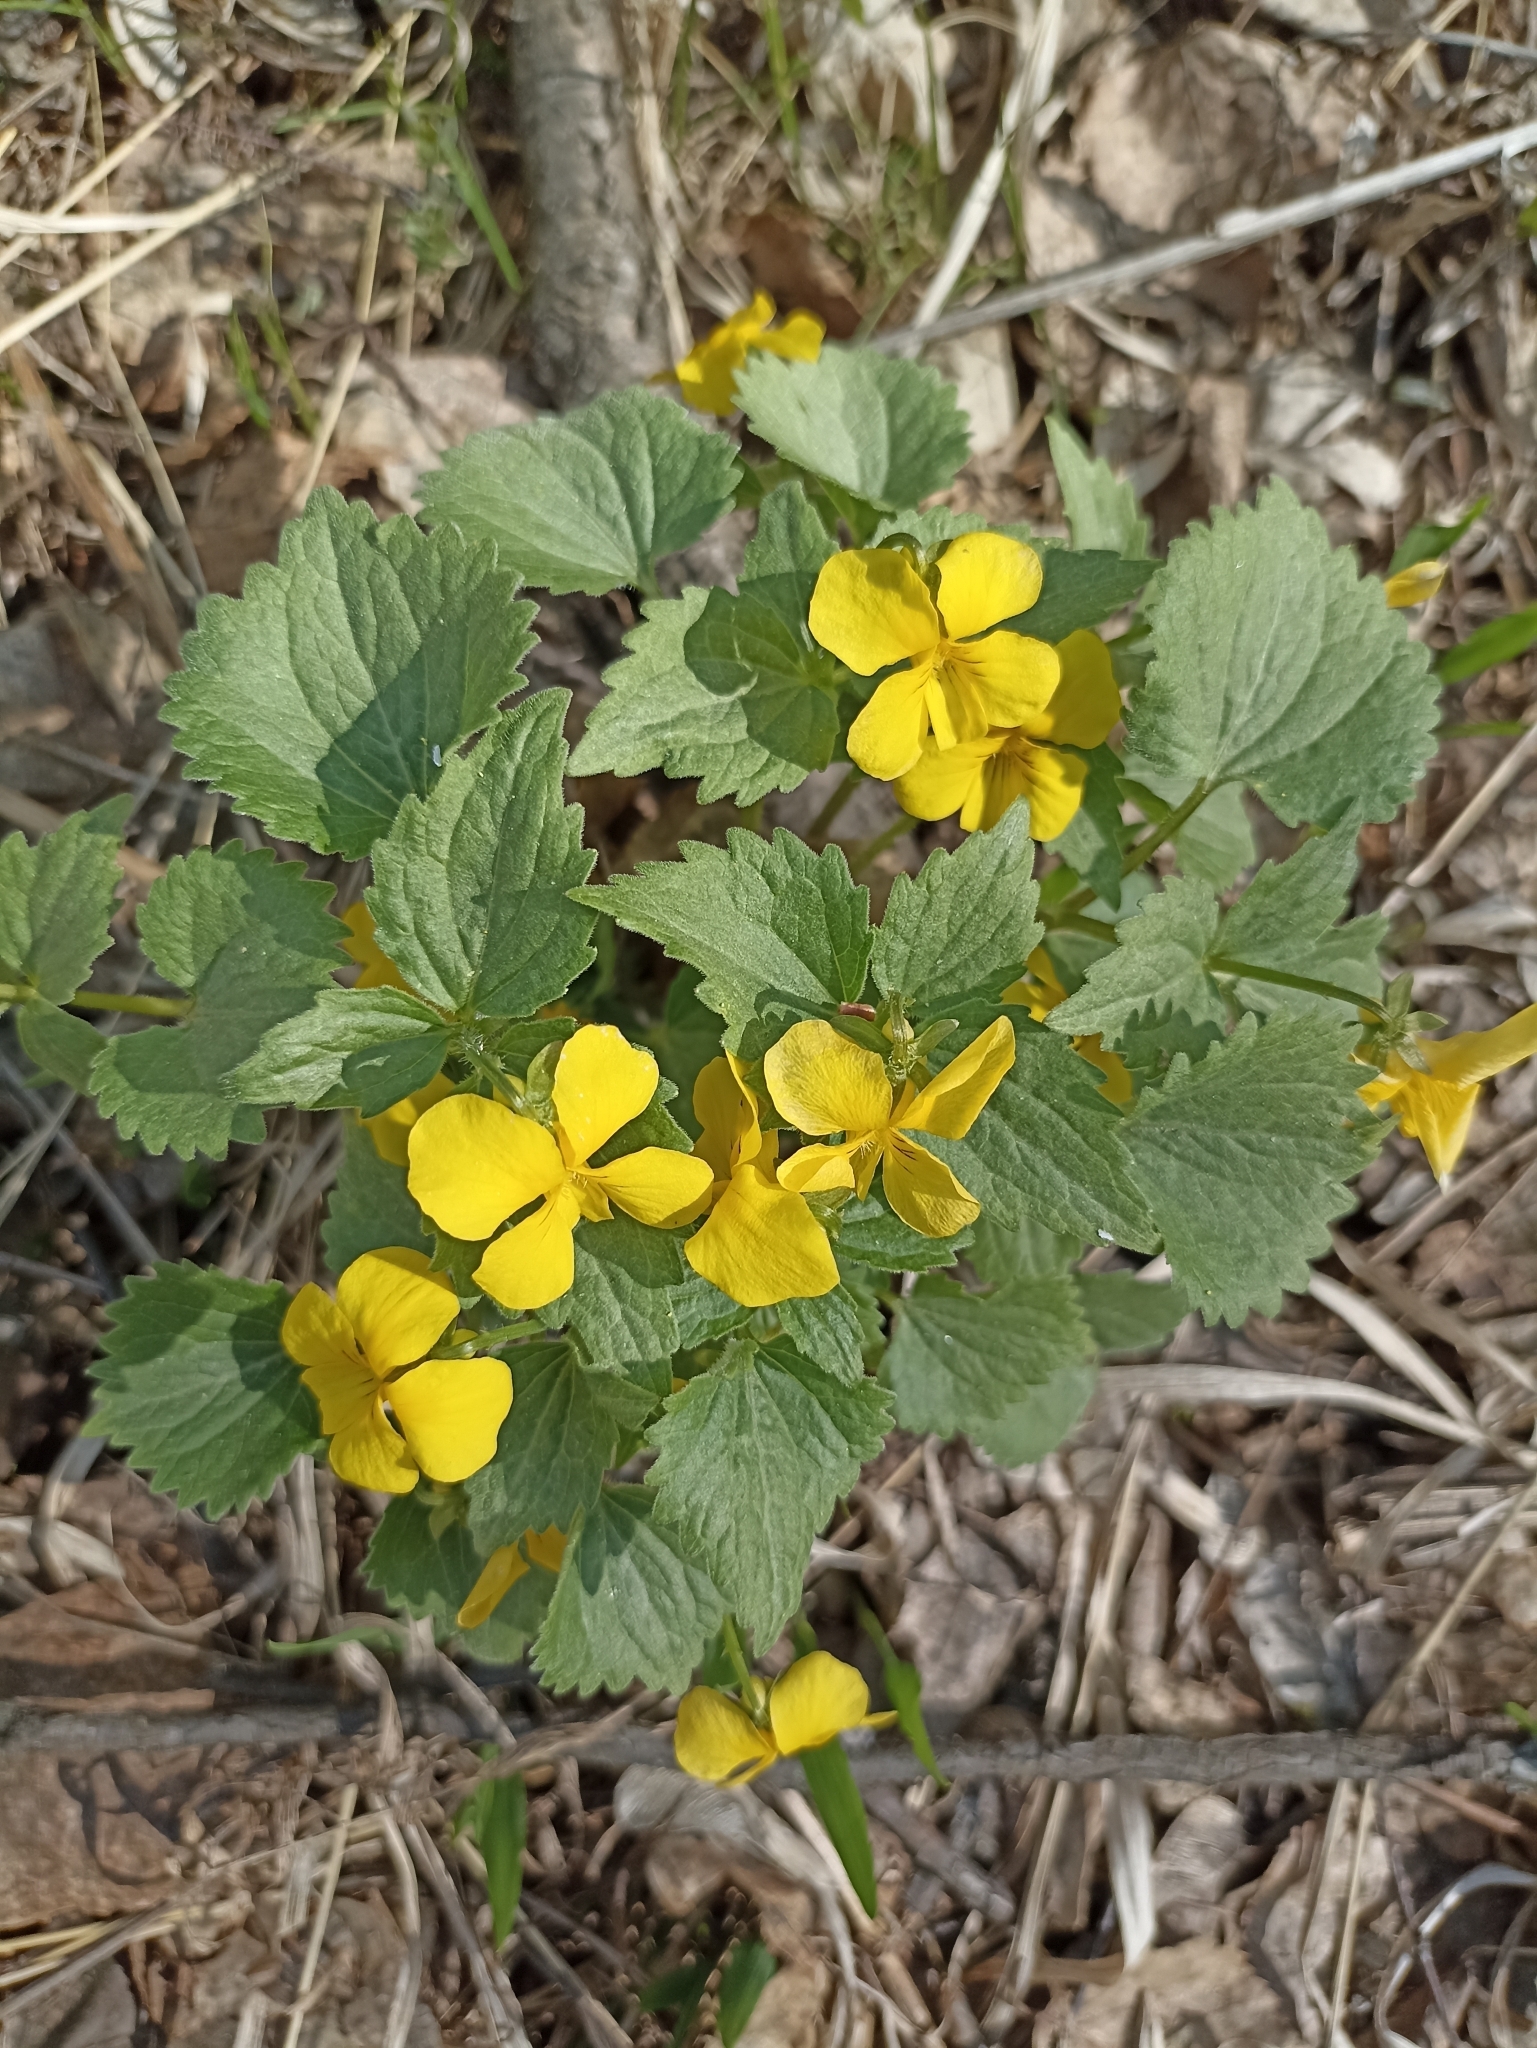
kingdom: Plantae
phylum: Tracheophyta
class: Magnoliopsida
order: Malpighiales
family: Violaceae
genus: Viola
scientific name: Viola uniflora
